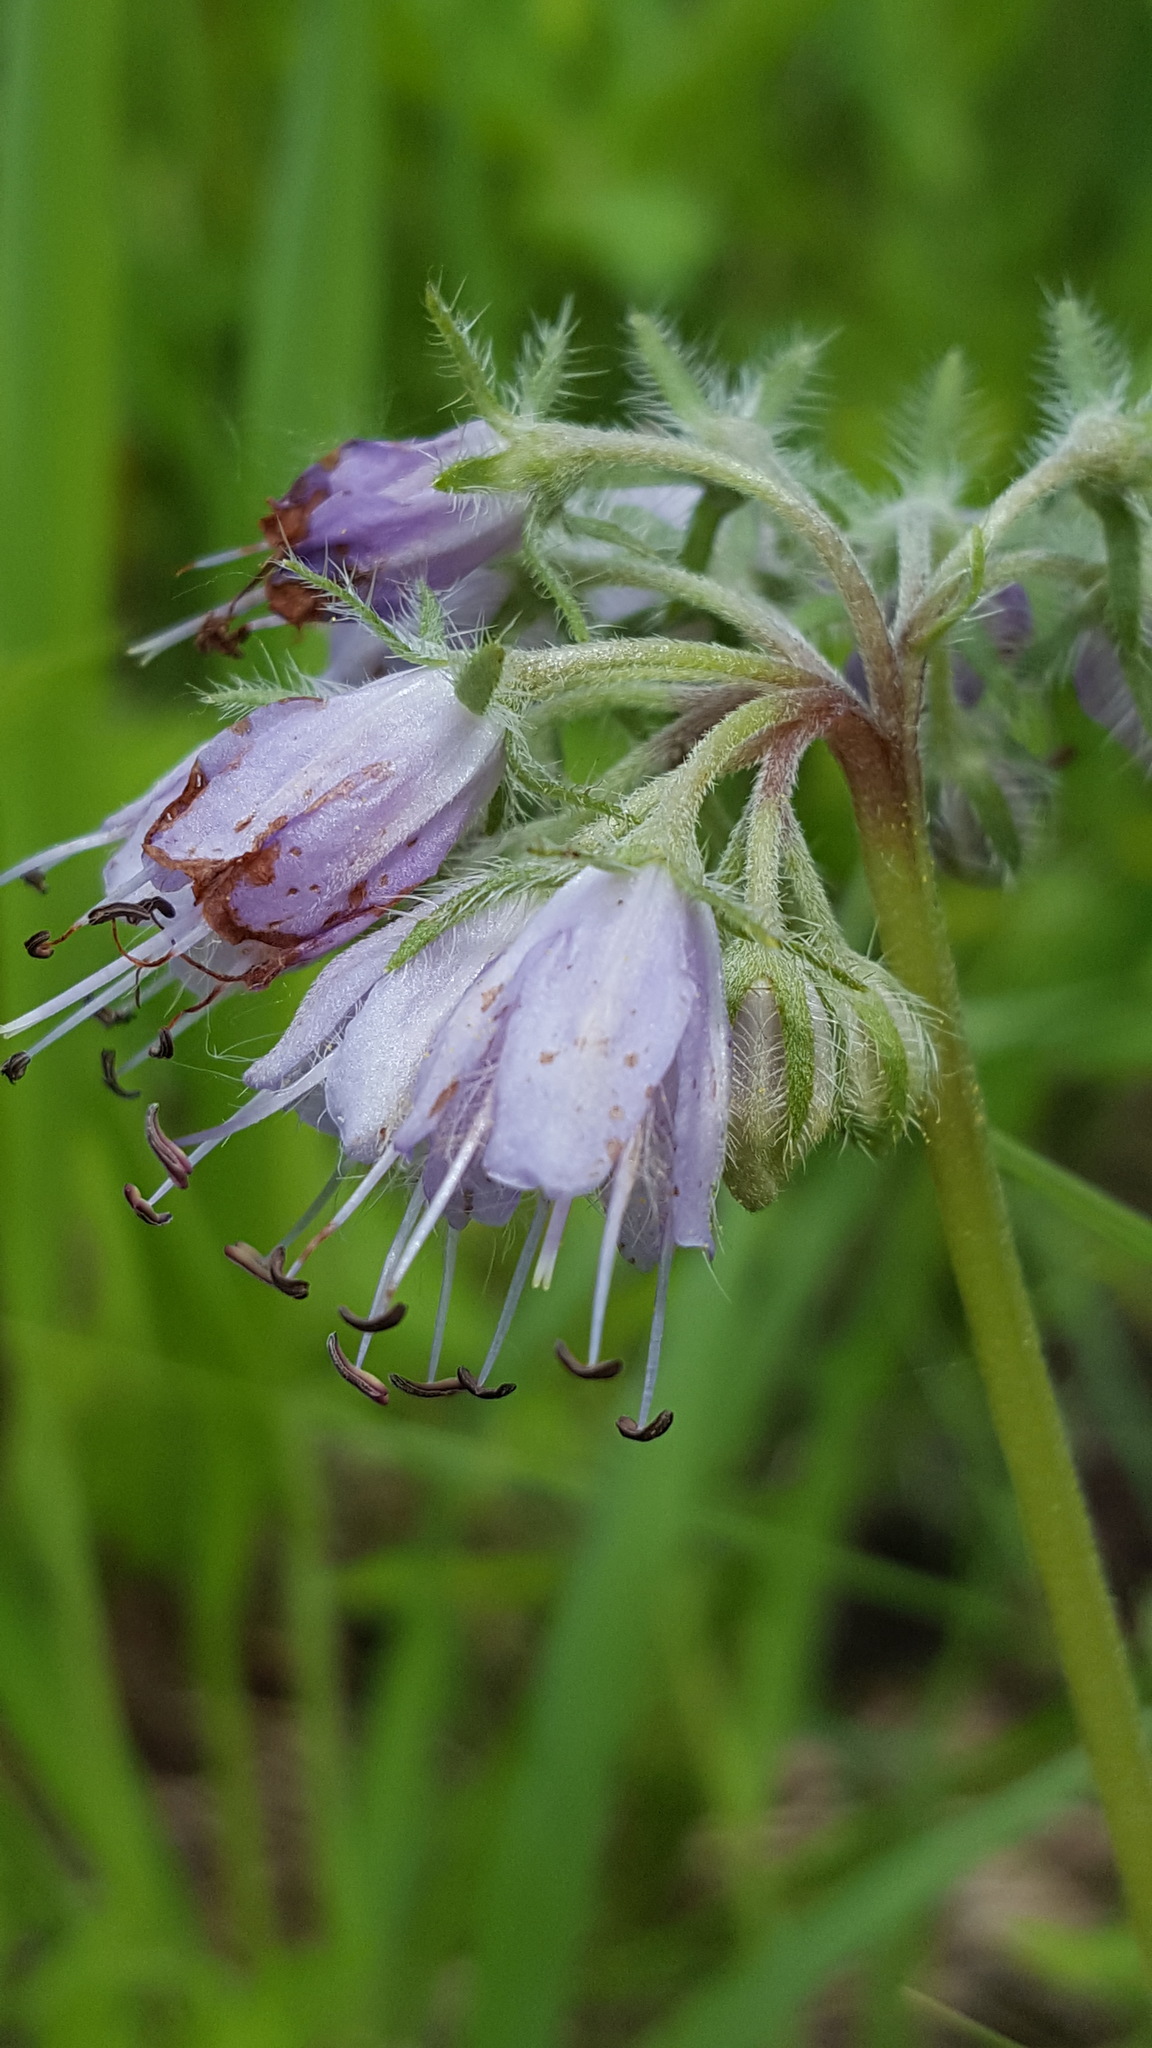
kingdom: Plantae
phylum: Tracheophyta
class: Magnoliopsida
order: Boraginales
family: Hydrophyllaceae
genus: Hydrophyllum
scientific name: Hydrophyllum virginianum
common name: Virginia waterleaf
